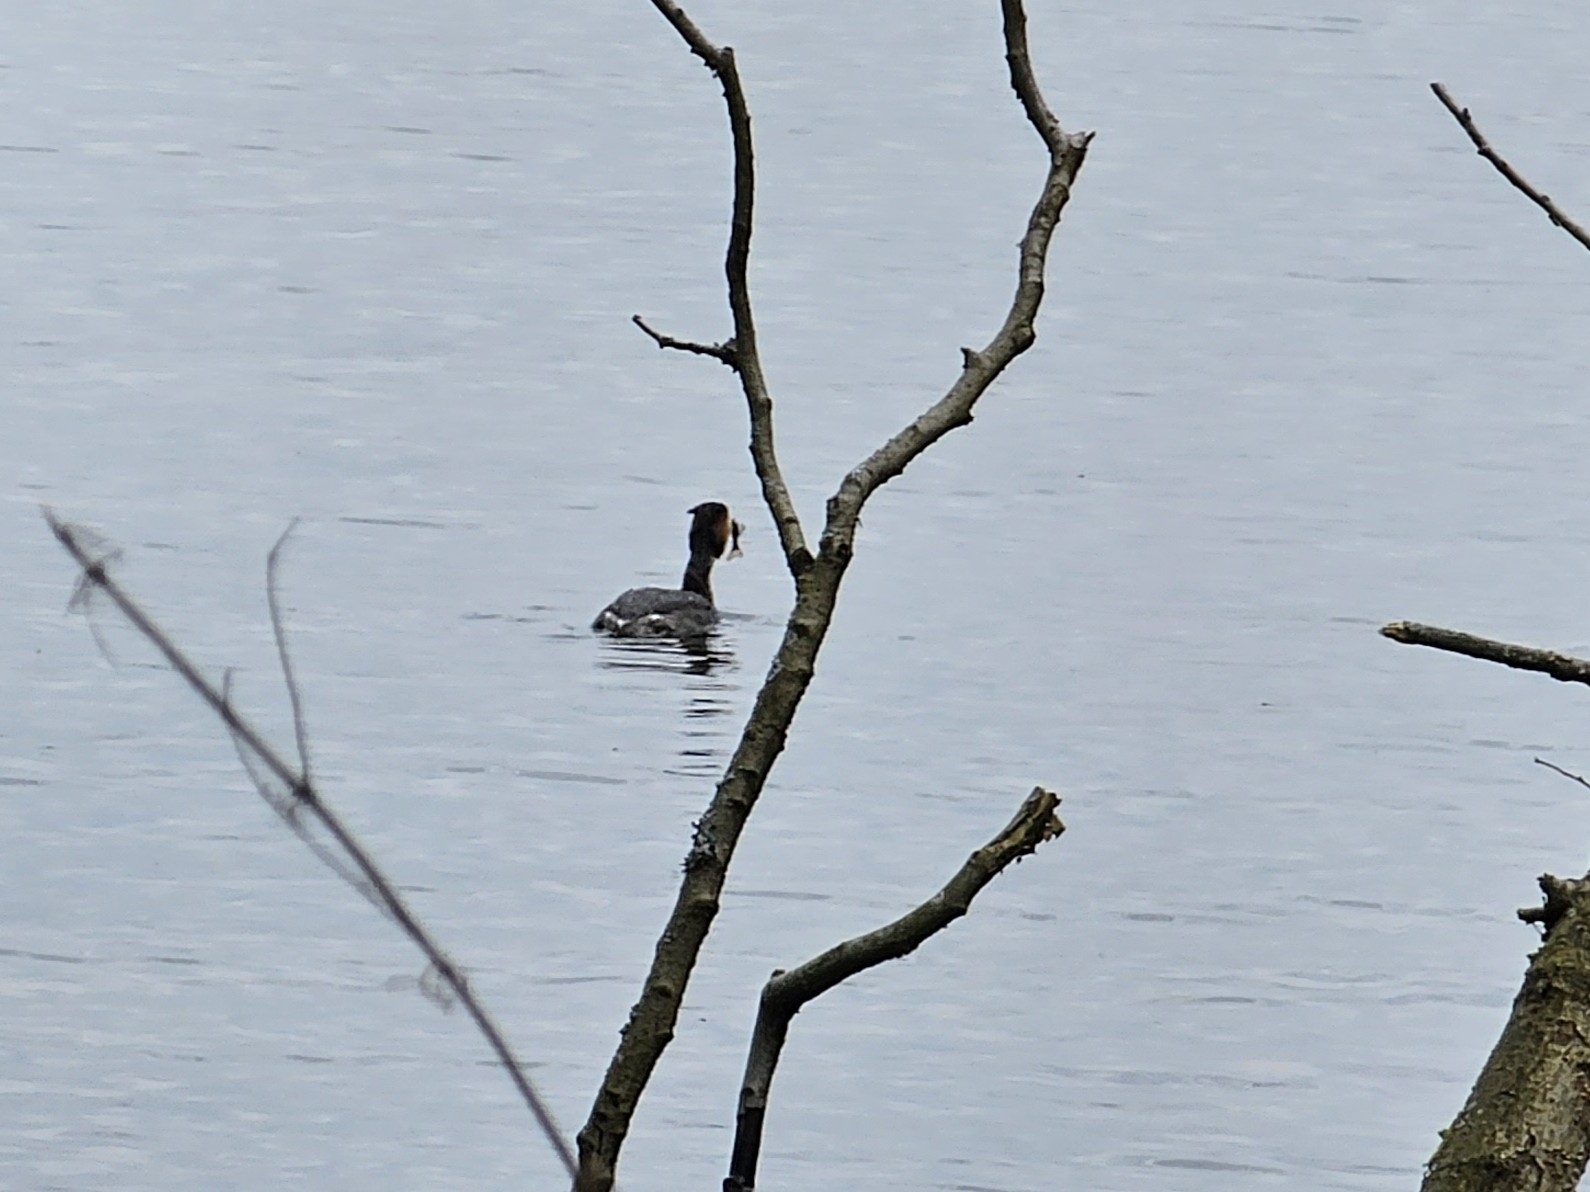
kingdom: Animalia
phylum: Chordata
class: Aves
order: Podicipediformes
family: Podicipedidae
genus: Podiceps
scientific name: Podiceps cristatus
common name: Great crested grebe
